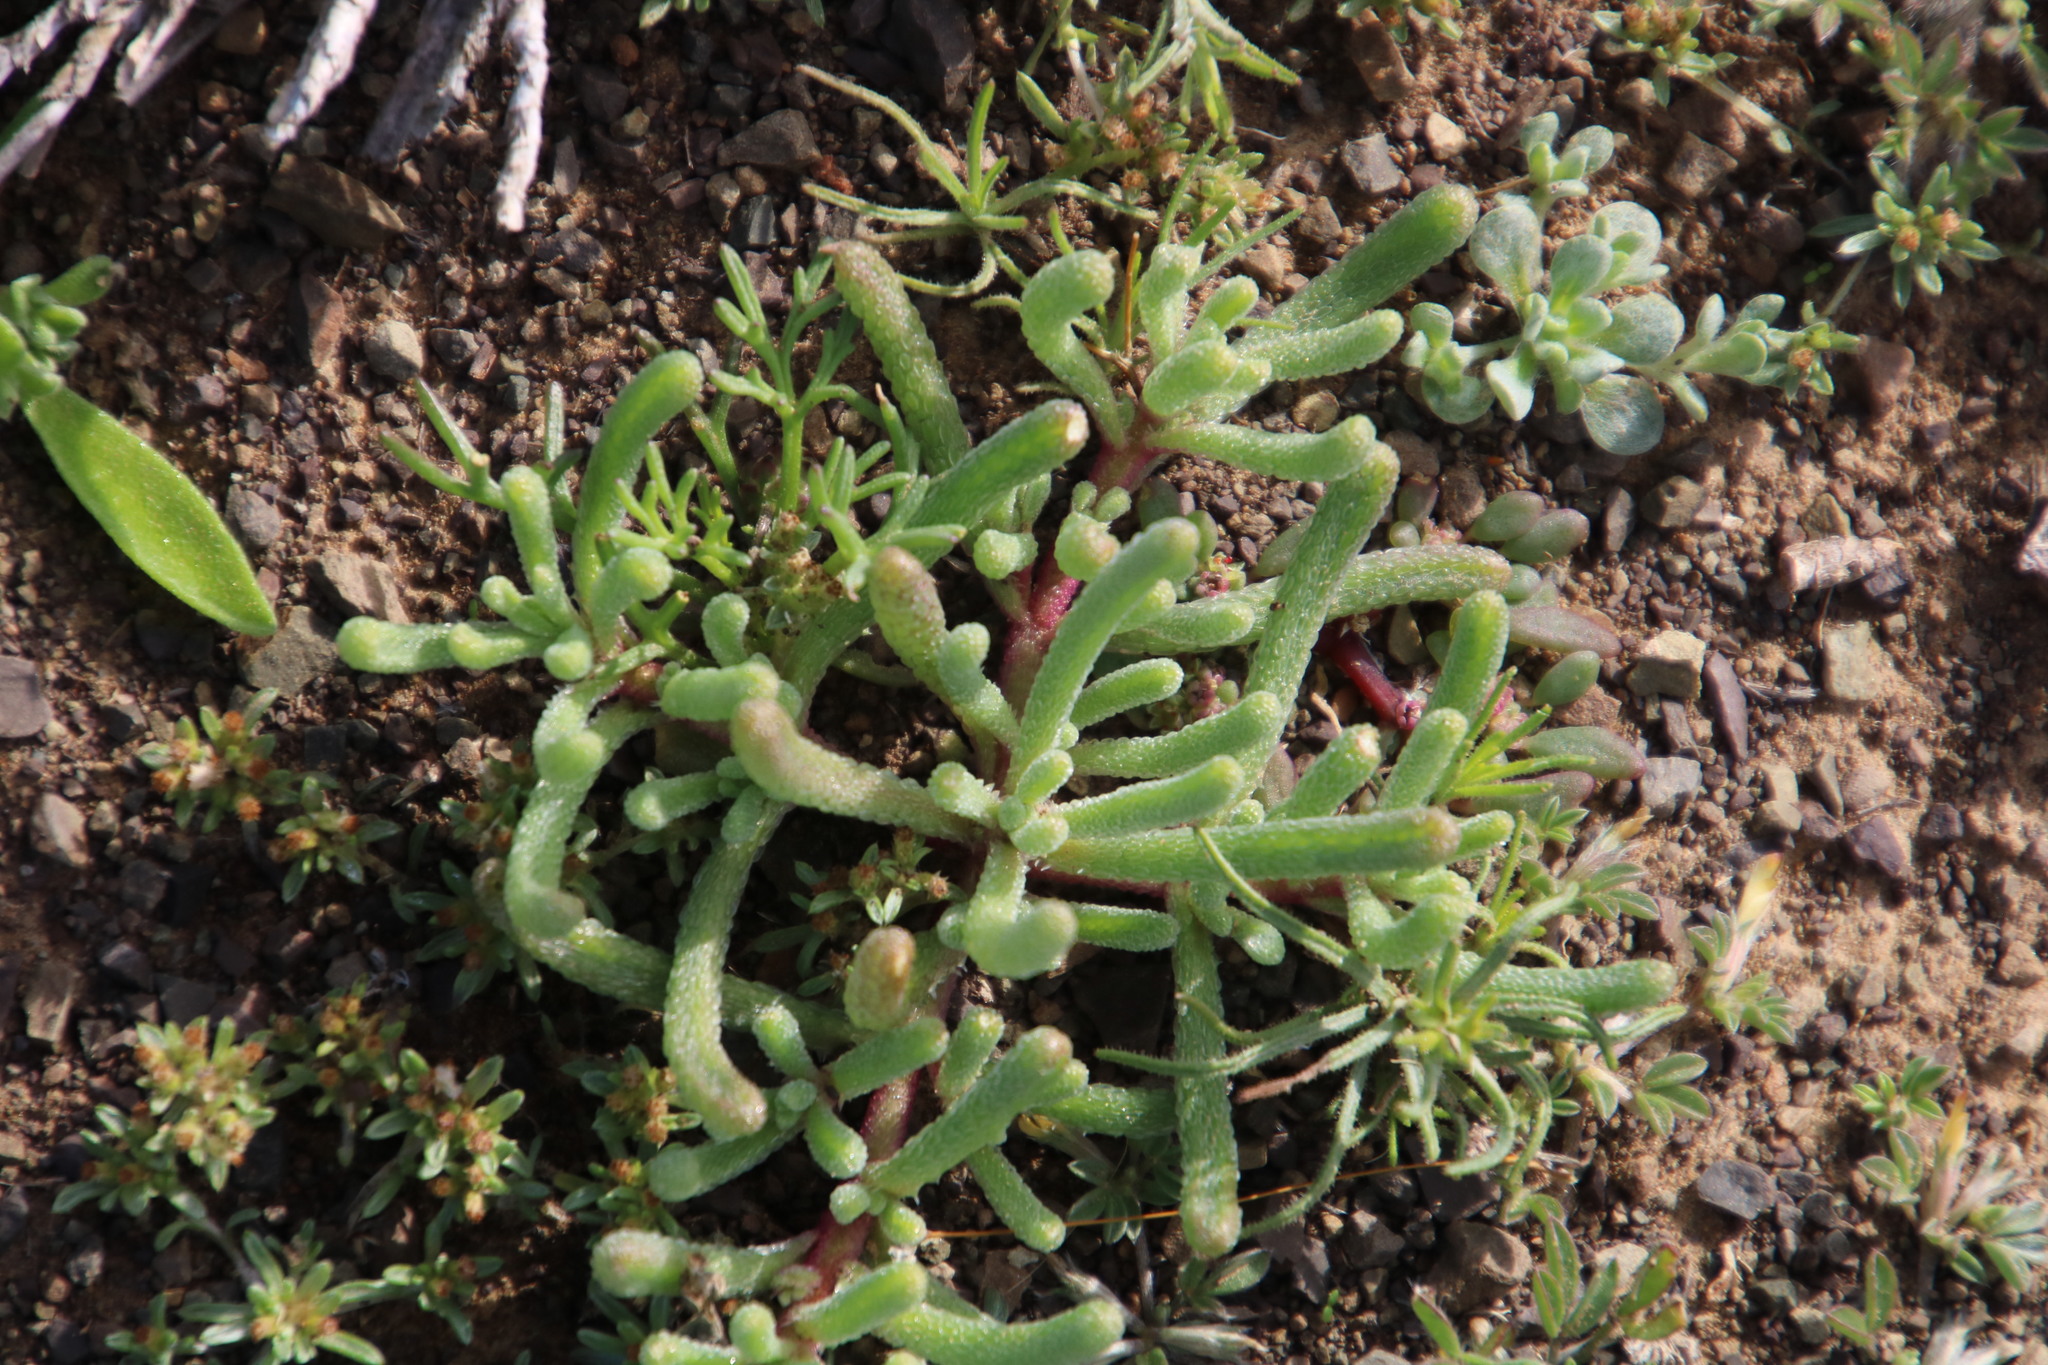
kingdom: Plantae
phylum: Tracheophyta
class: Magnoliopsida
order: Caryophyllales
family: Aizoaceae
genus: Mesembryanthemum
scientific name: Mesembryanthemum nodiflorum
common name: Slenderleaf iceplant
